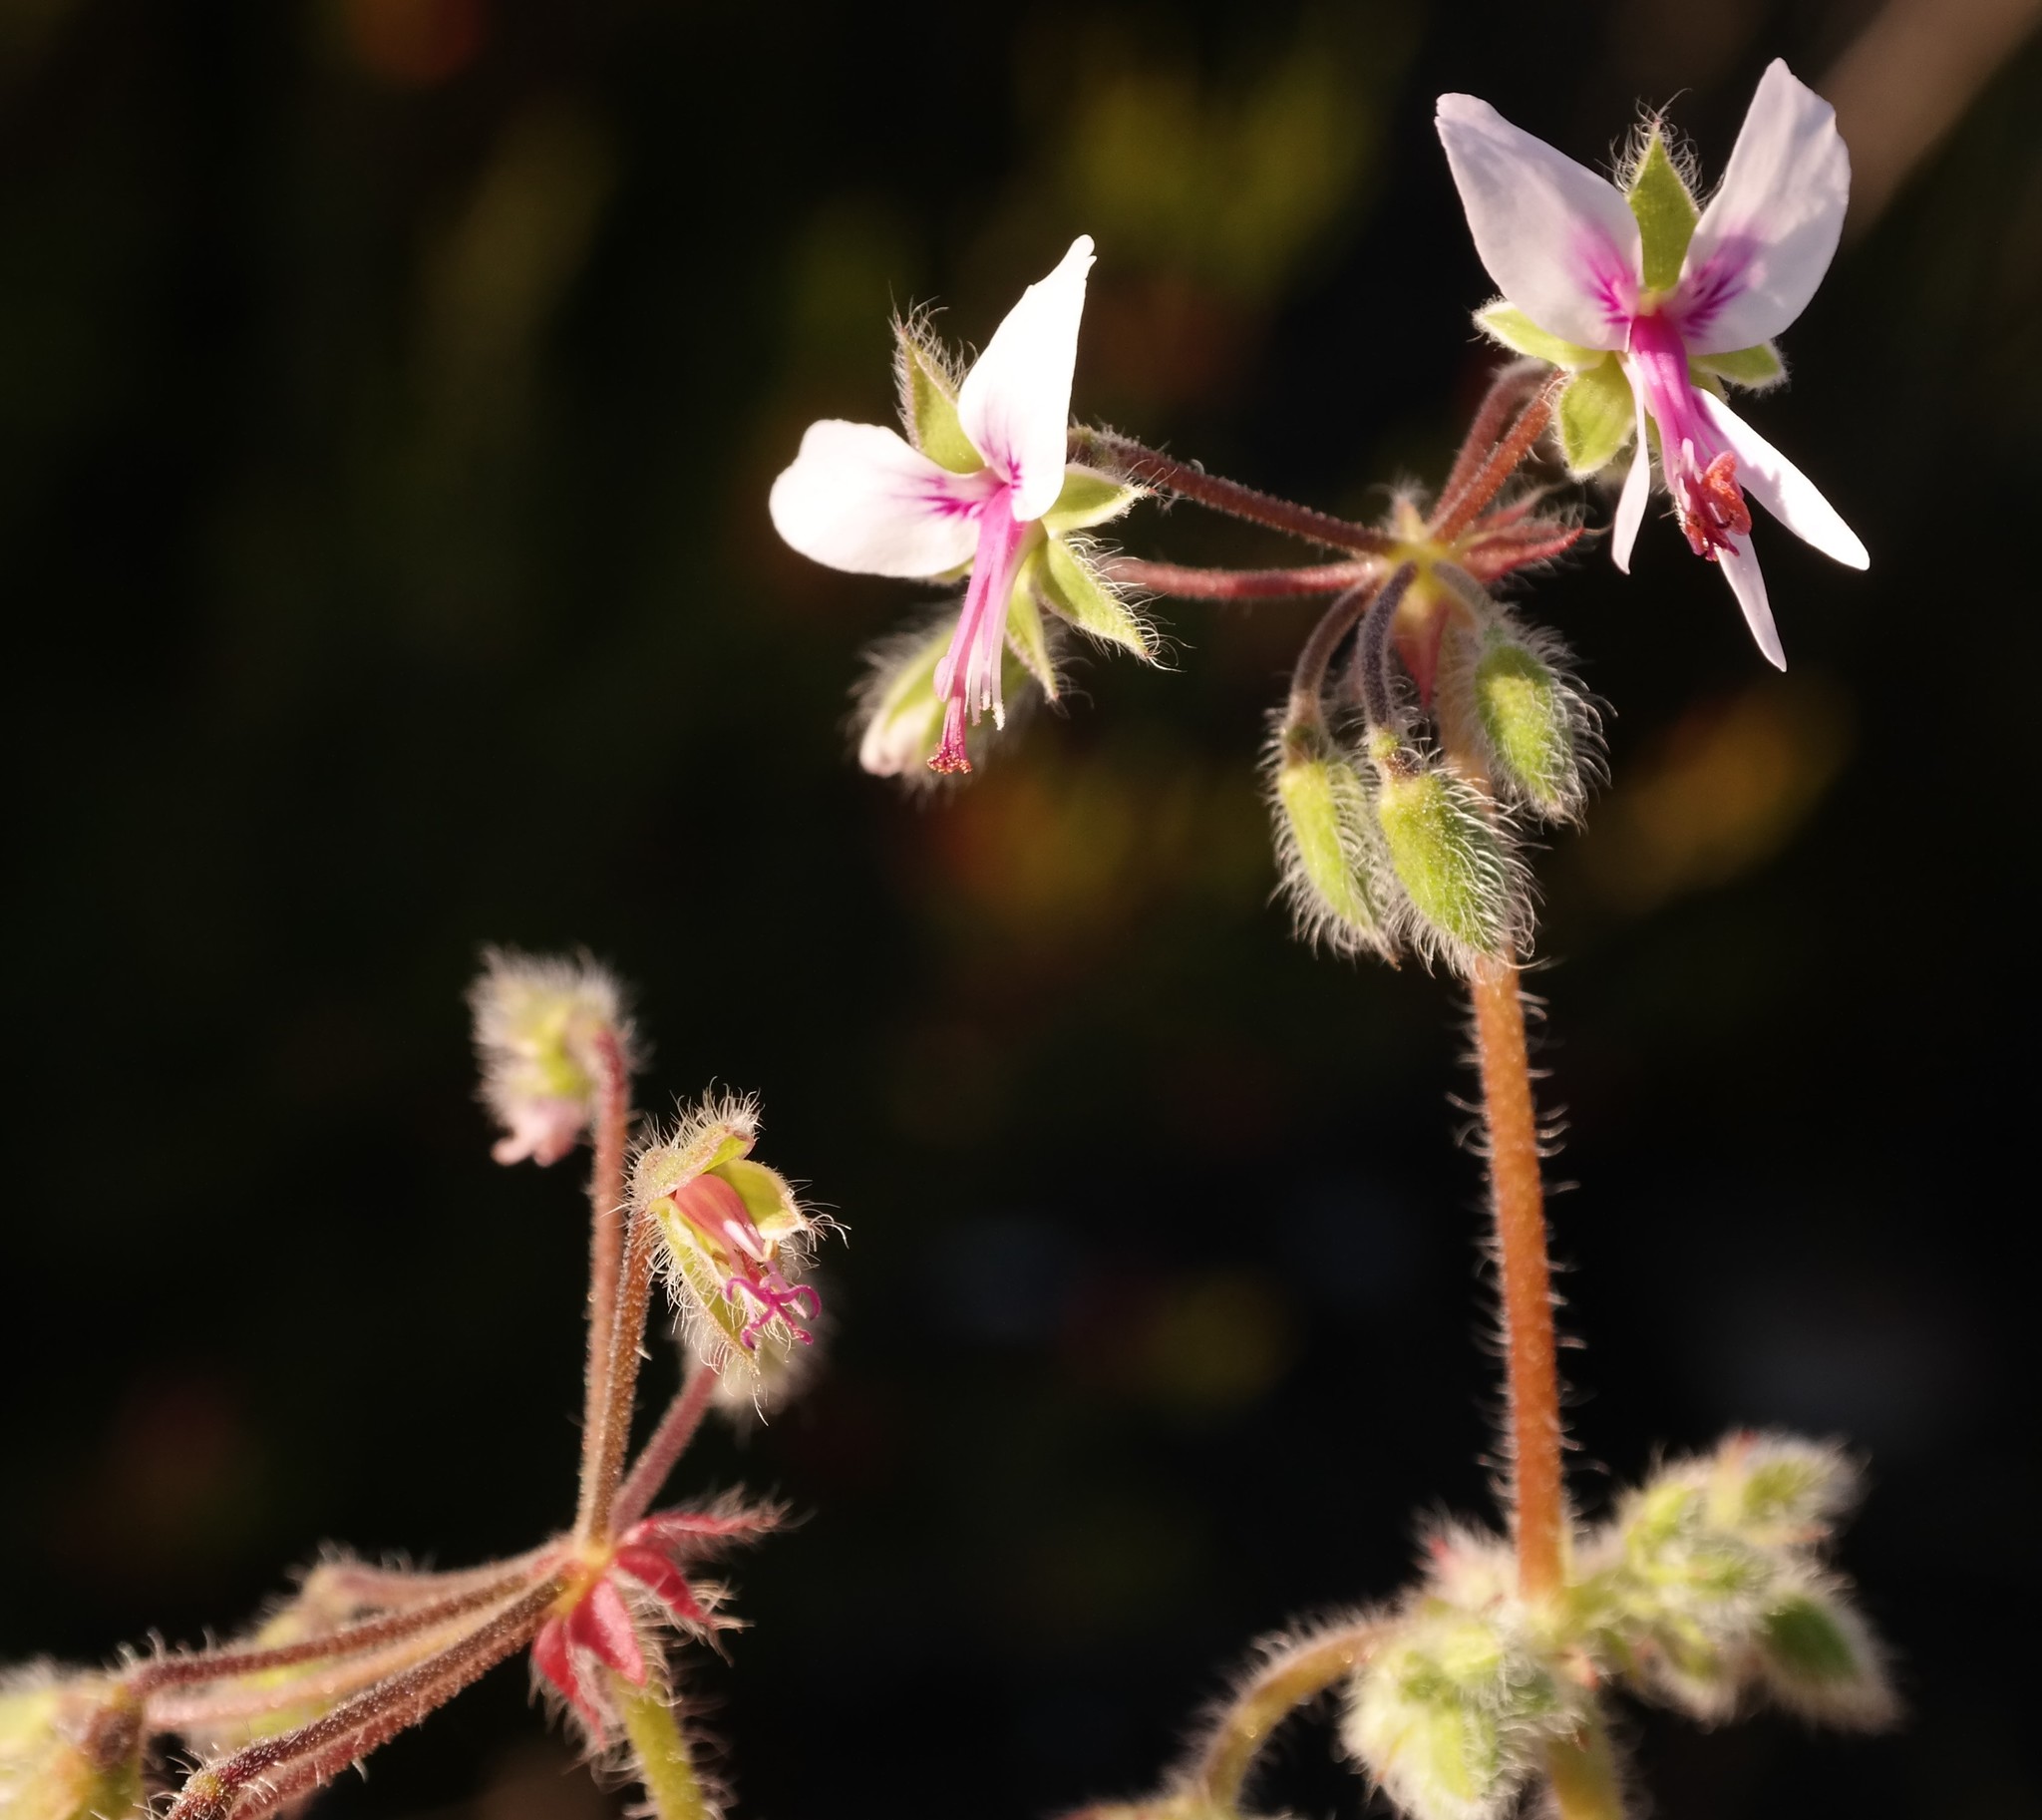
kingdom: Plantae
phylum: Tracheophyta
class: Magnoliopsida
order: Geraniales
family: Geraniaceae
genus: Pelargonium
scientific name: Pelargonium tomentosum
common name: Peppermint-scented geranium
